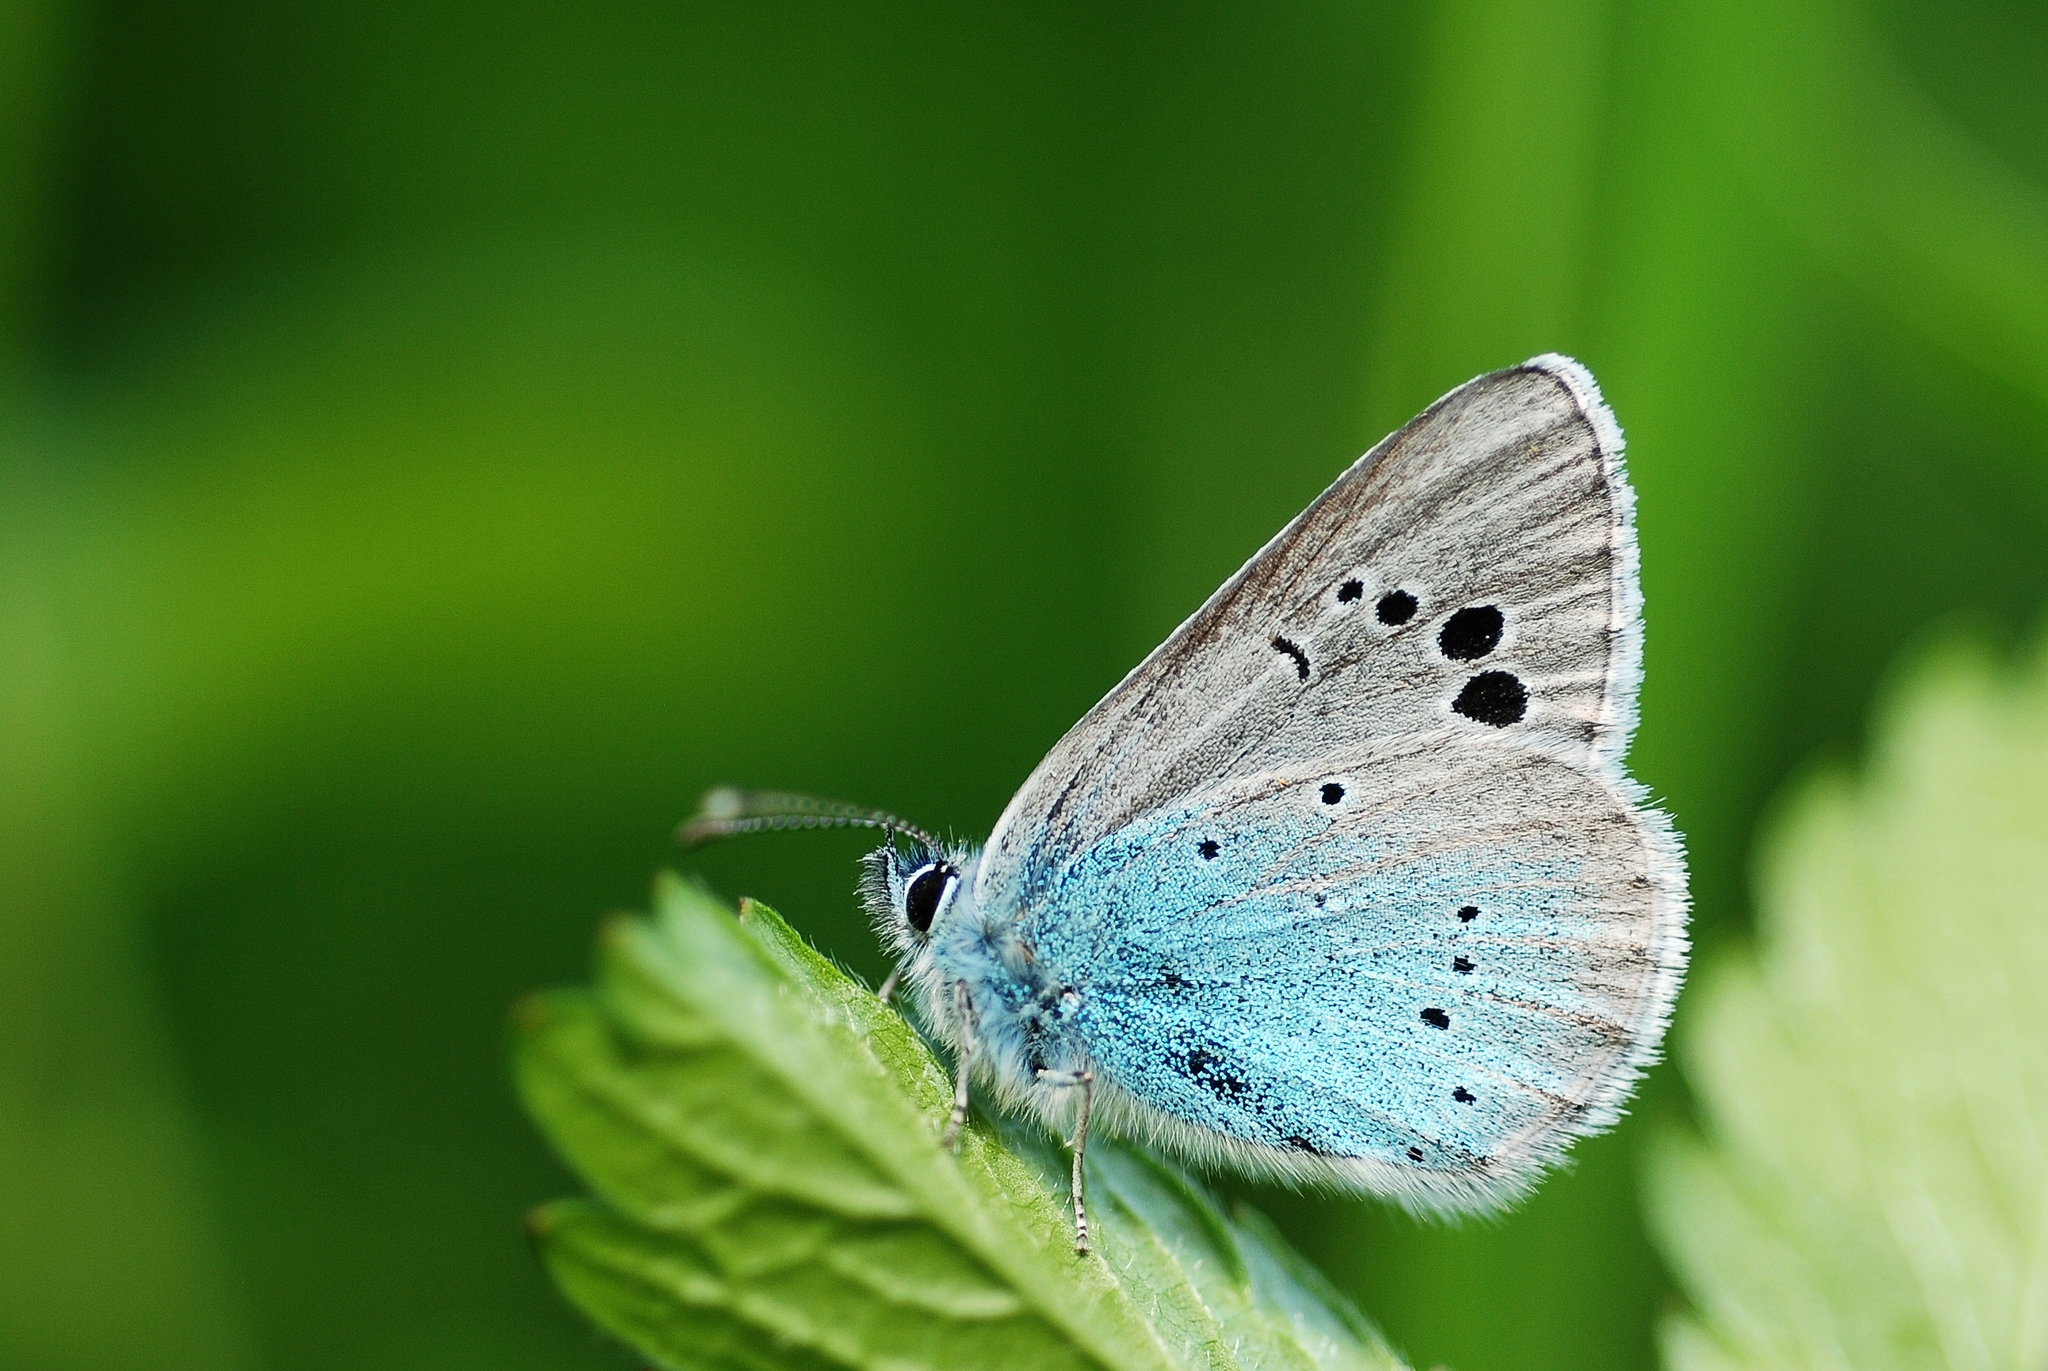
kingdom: Animalia
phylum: Arthropoda
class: Insecta
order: Lepidoptera
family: Lycaenidae
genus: Glaucopsyche
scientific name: Glaucopsyche alexis
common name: Green-underside blue
